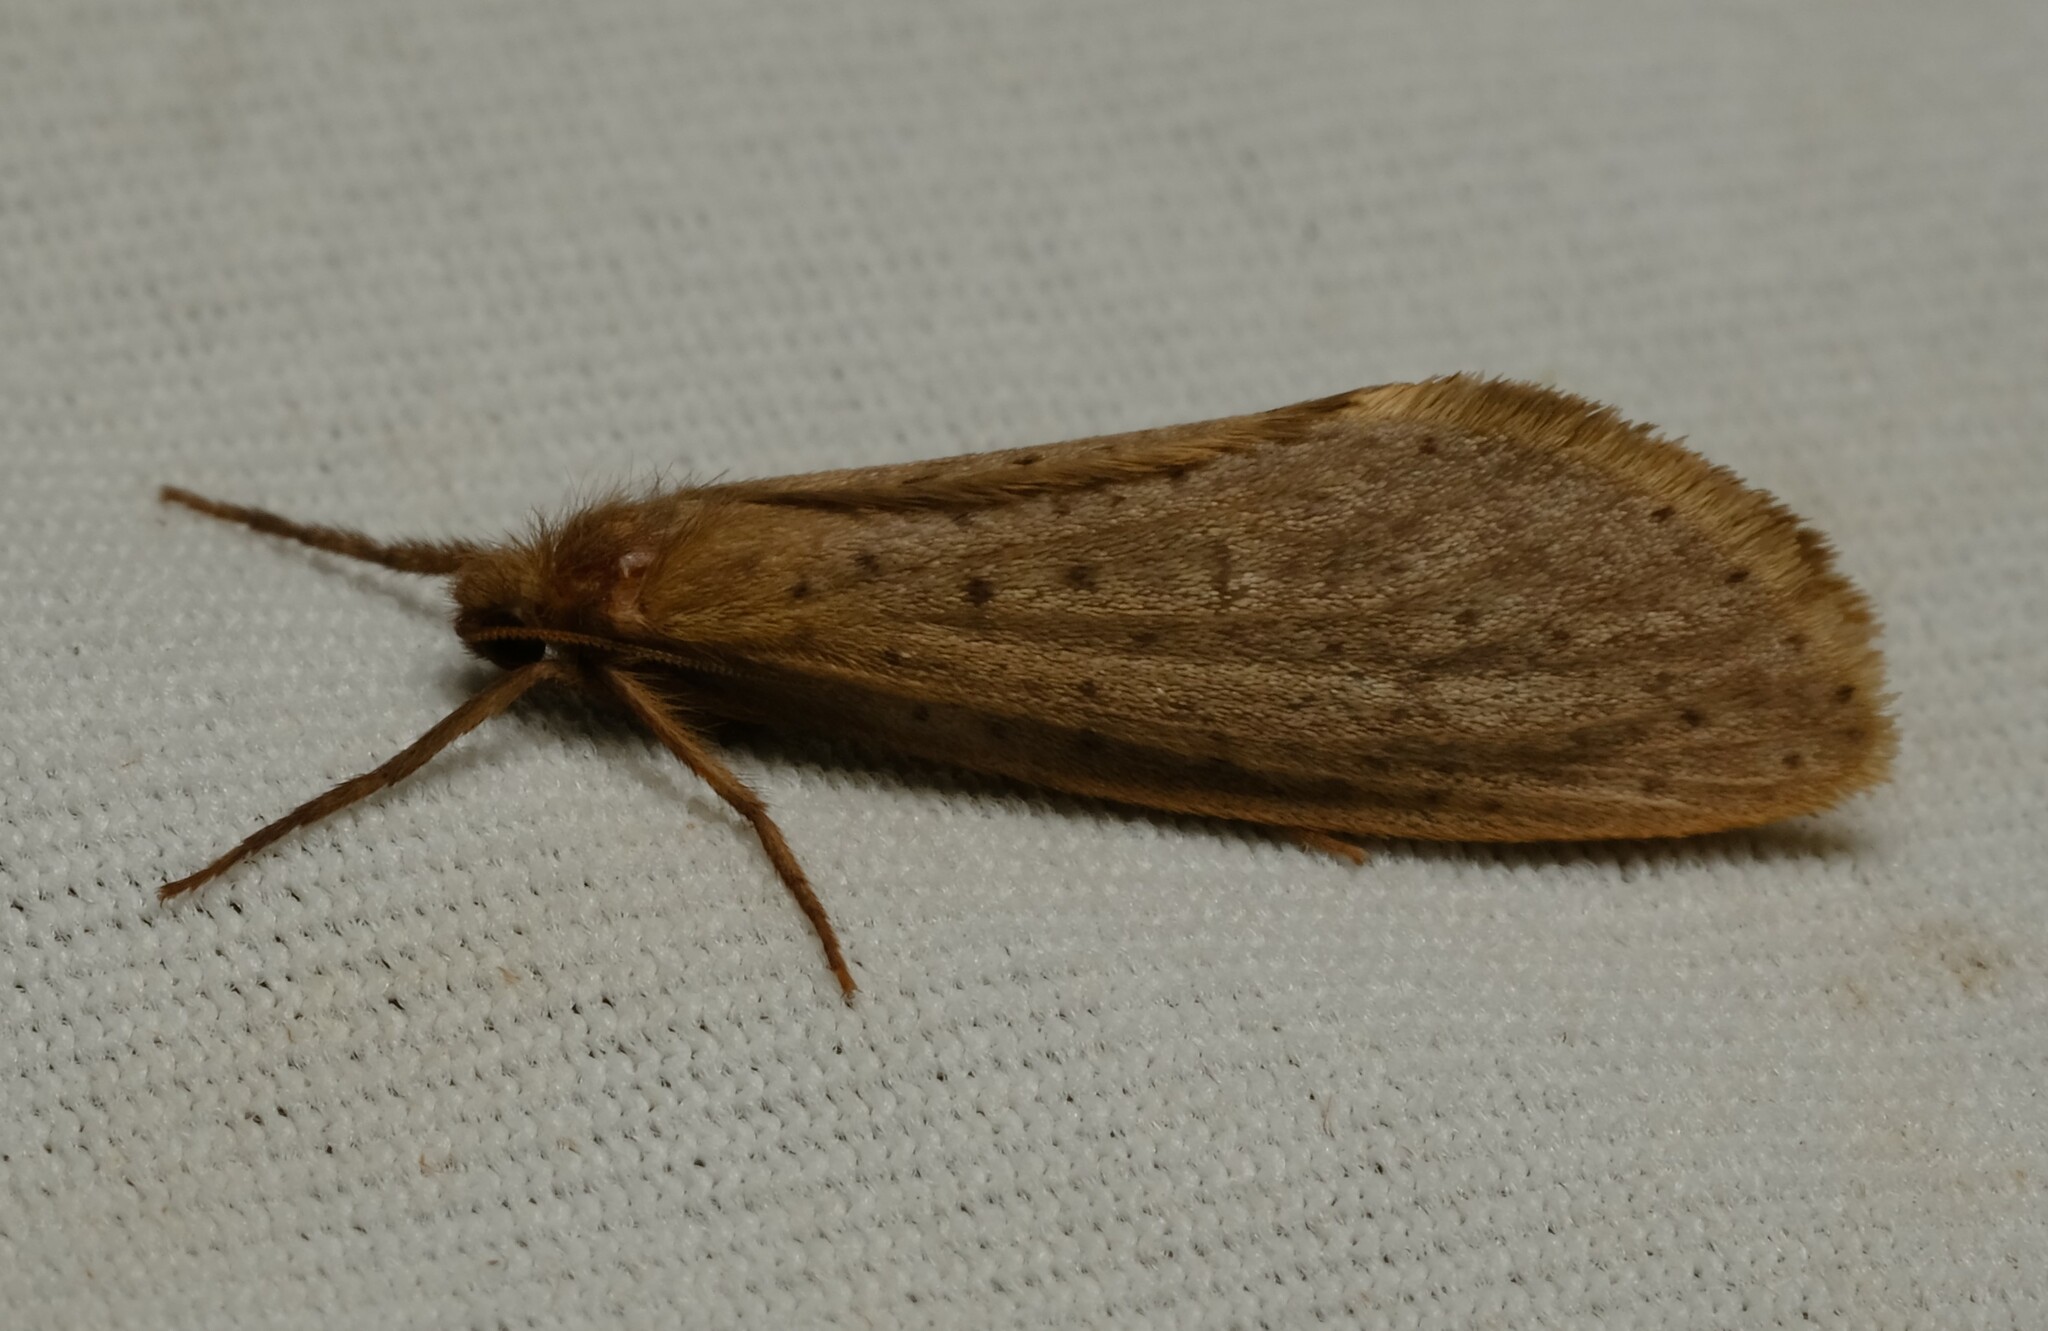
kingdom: Animalia
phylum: Arthropoda
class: Insecta
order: Lepidoptera
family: Hepialidae
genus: Fraus
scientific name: Fraus nanus
